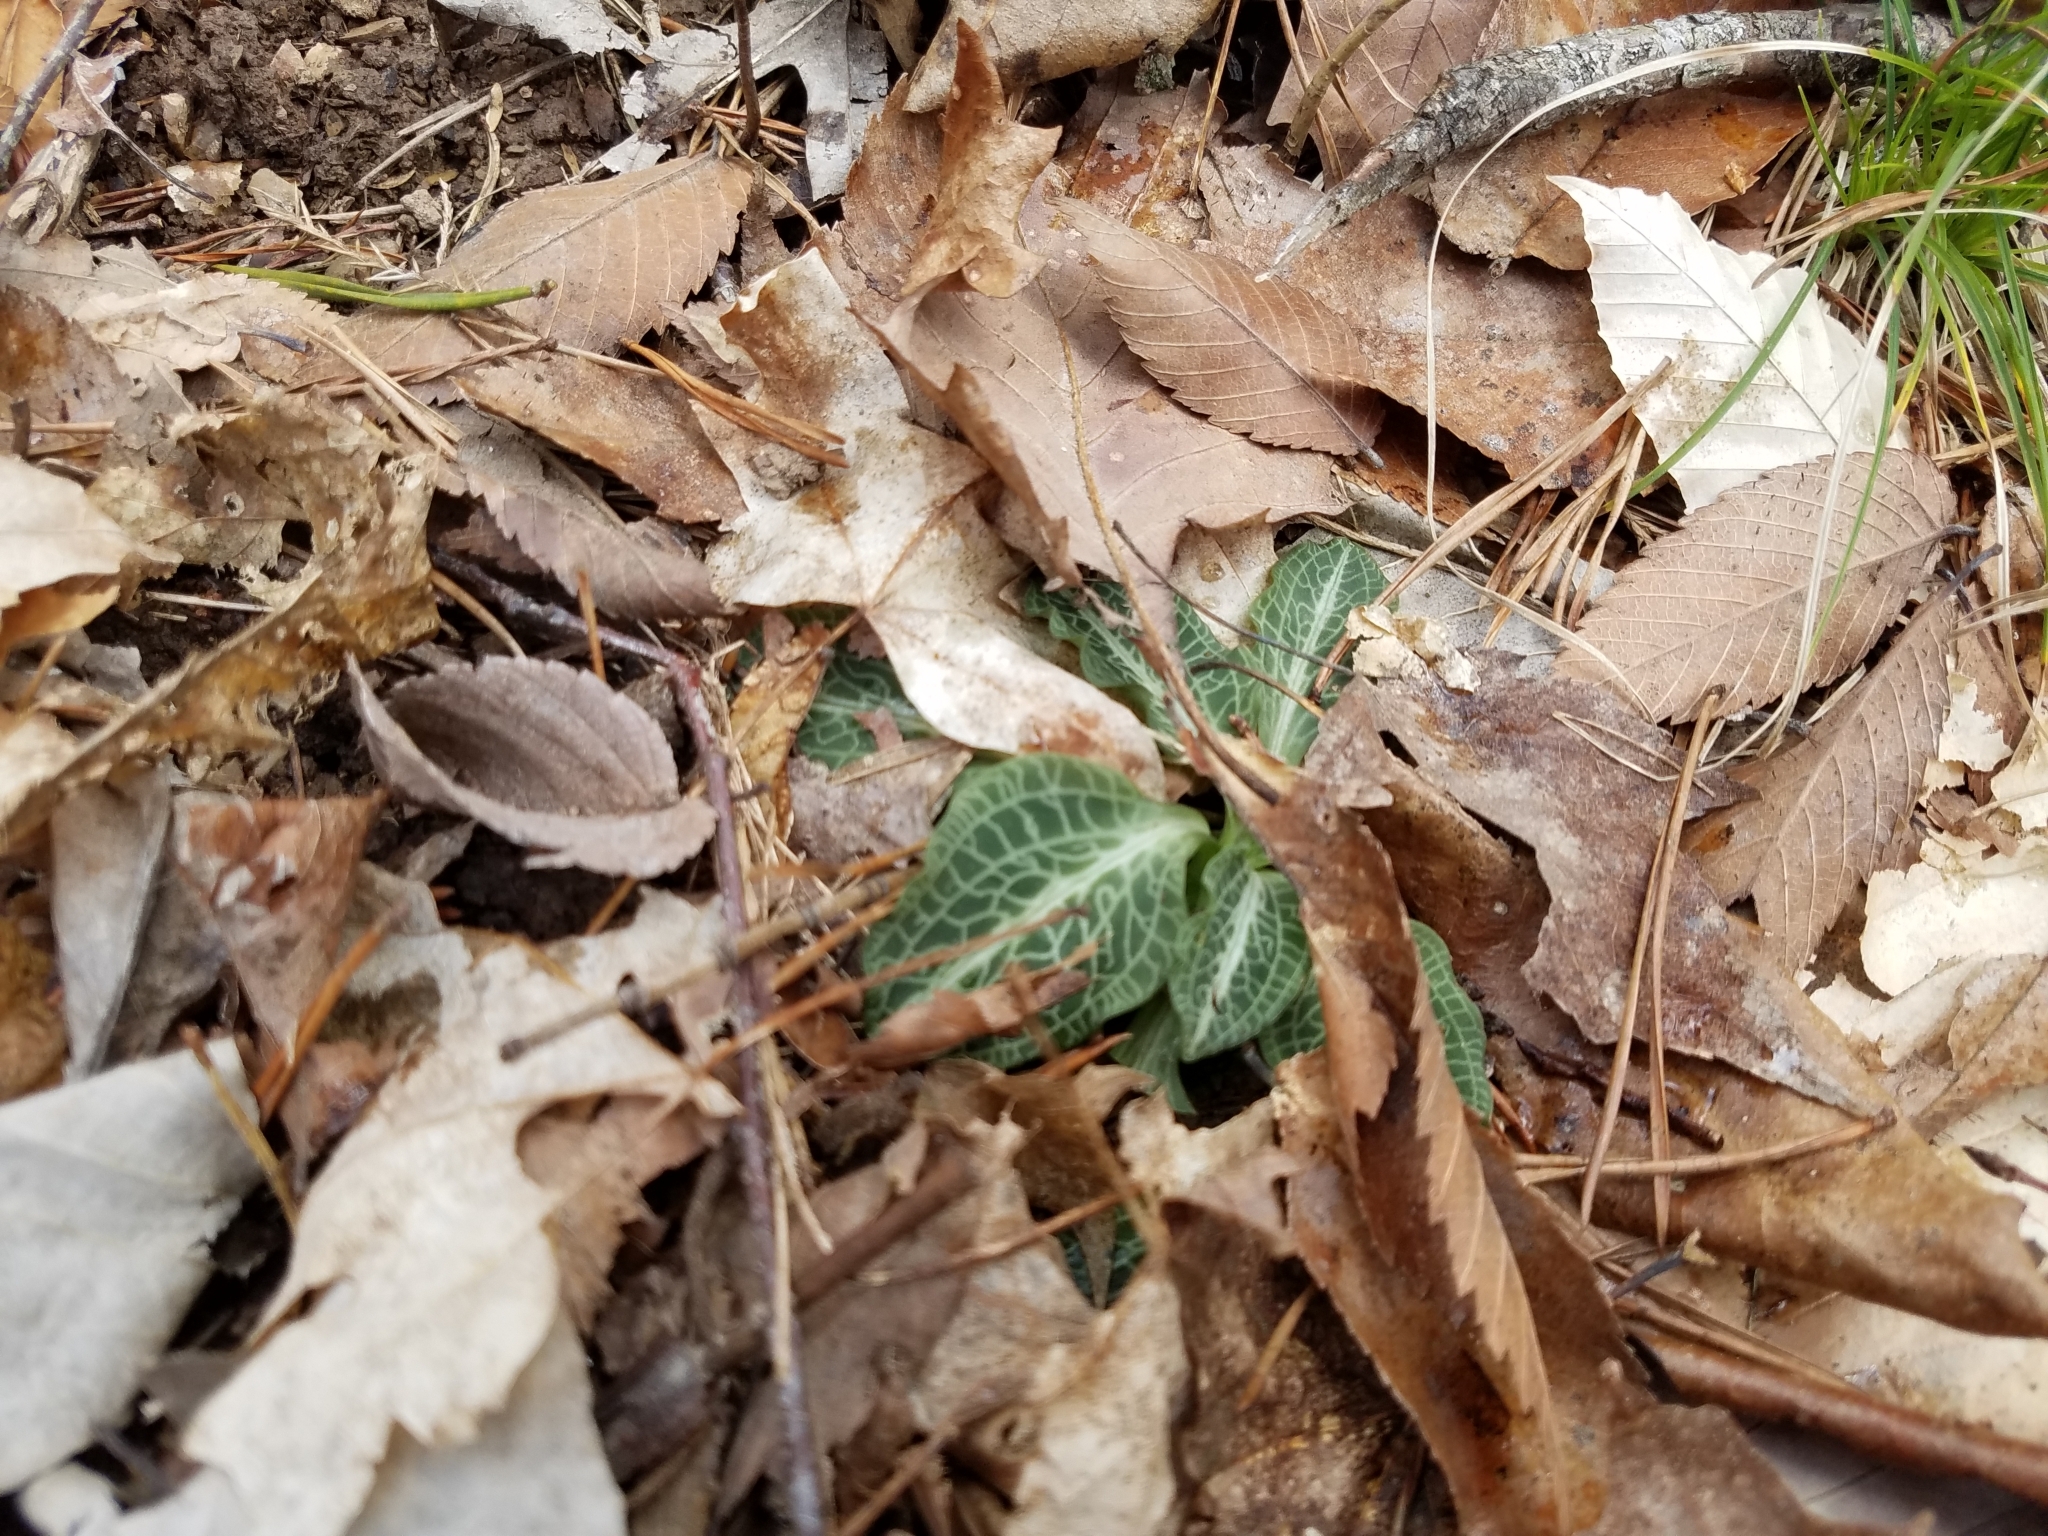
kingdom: Plantae
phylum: Tracheophyta
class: Liliopsida
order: Asparagales
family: Orchidaceae
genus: Goodyera
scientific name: Goodyera pubescens
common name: Downy rattlesnake-plantain
